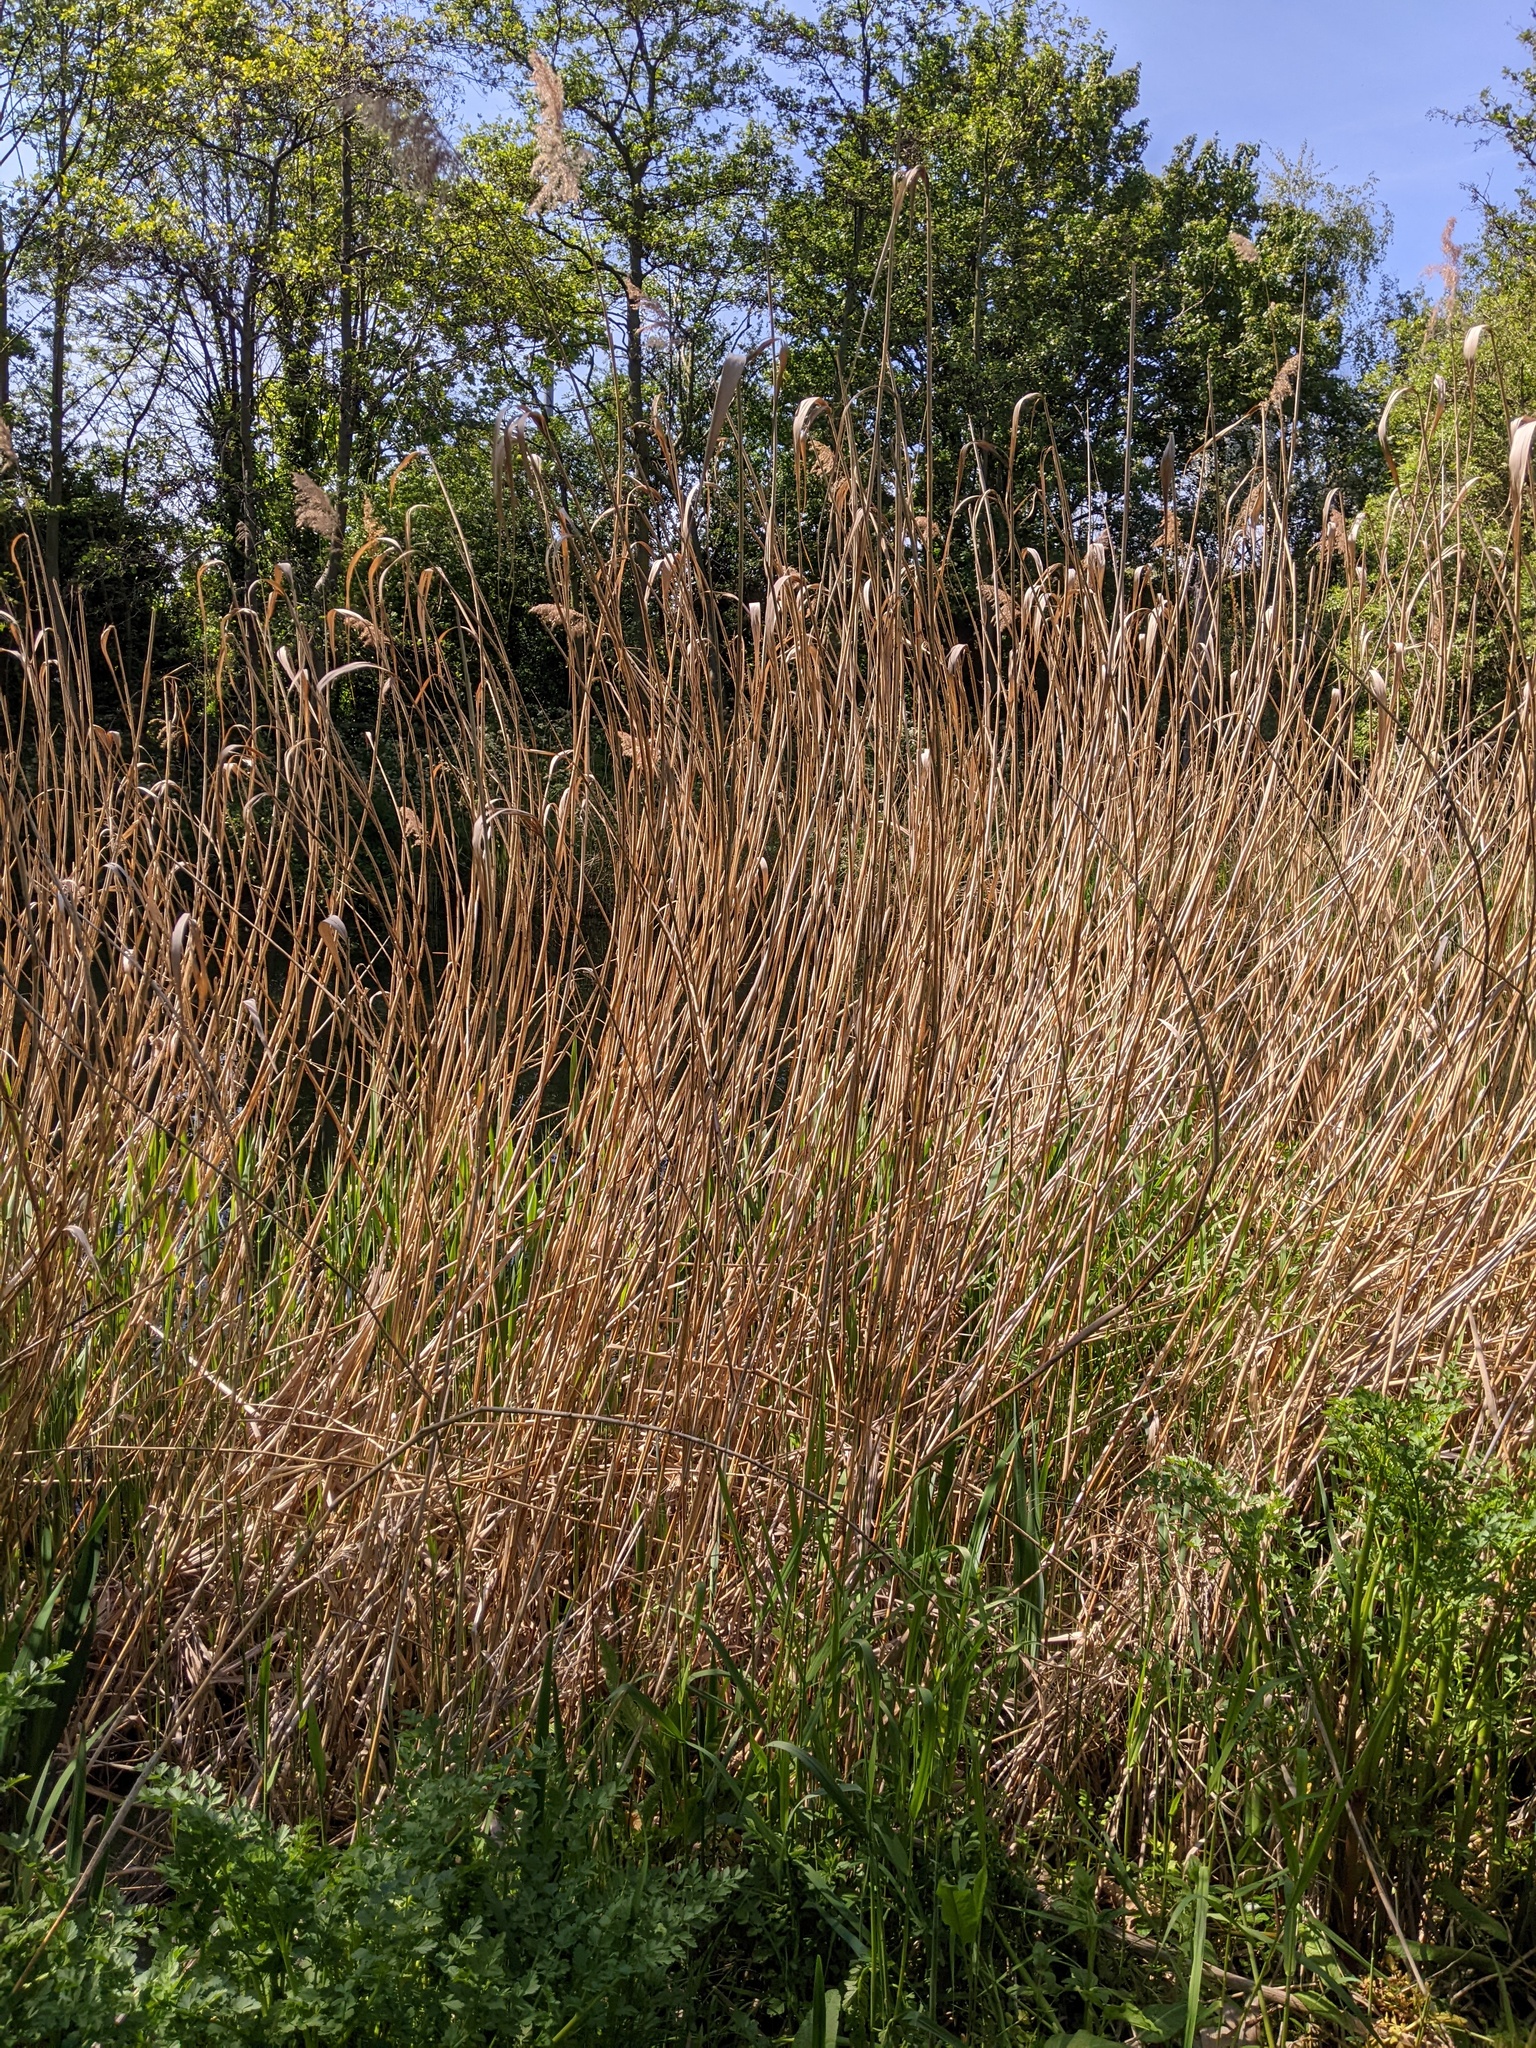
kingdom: Plantae
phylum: Tracheophyta
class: Liliopsida
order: Poales
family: Poaceae
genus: Phragmites
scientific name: Phragmites australis
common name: Common reed
